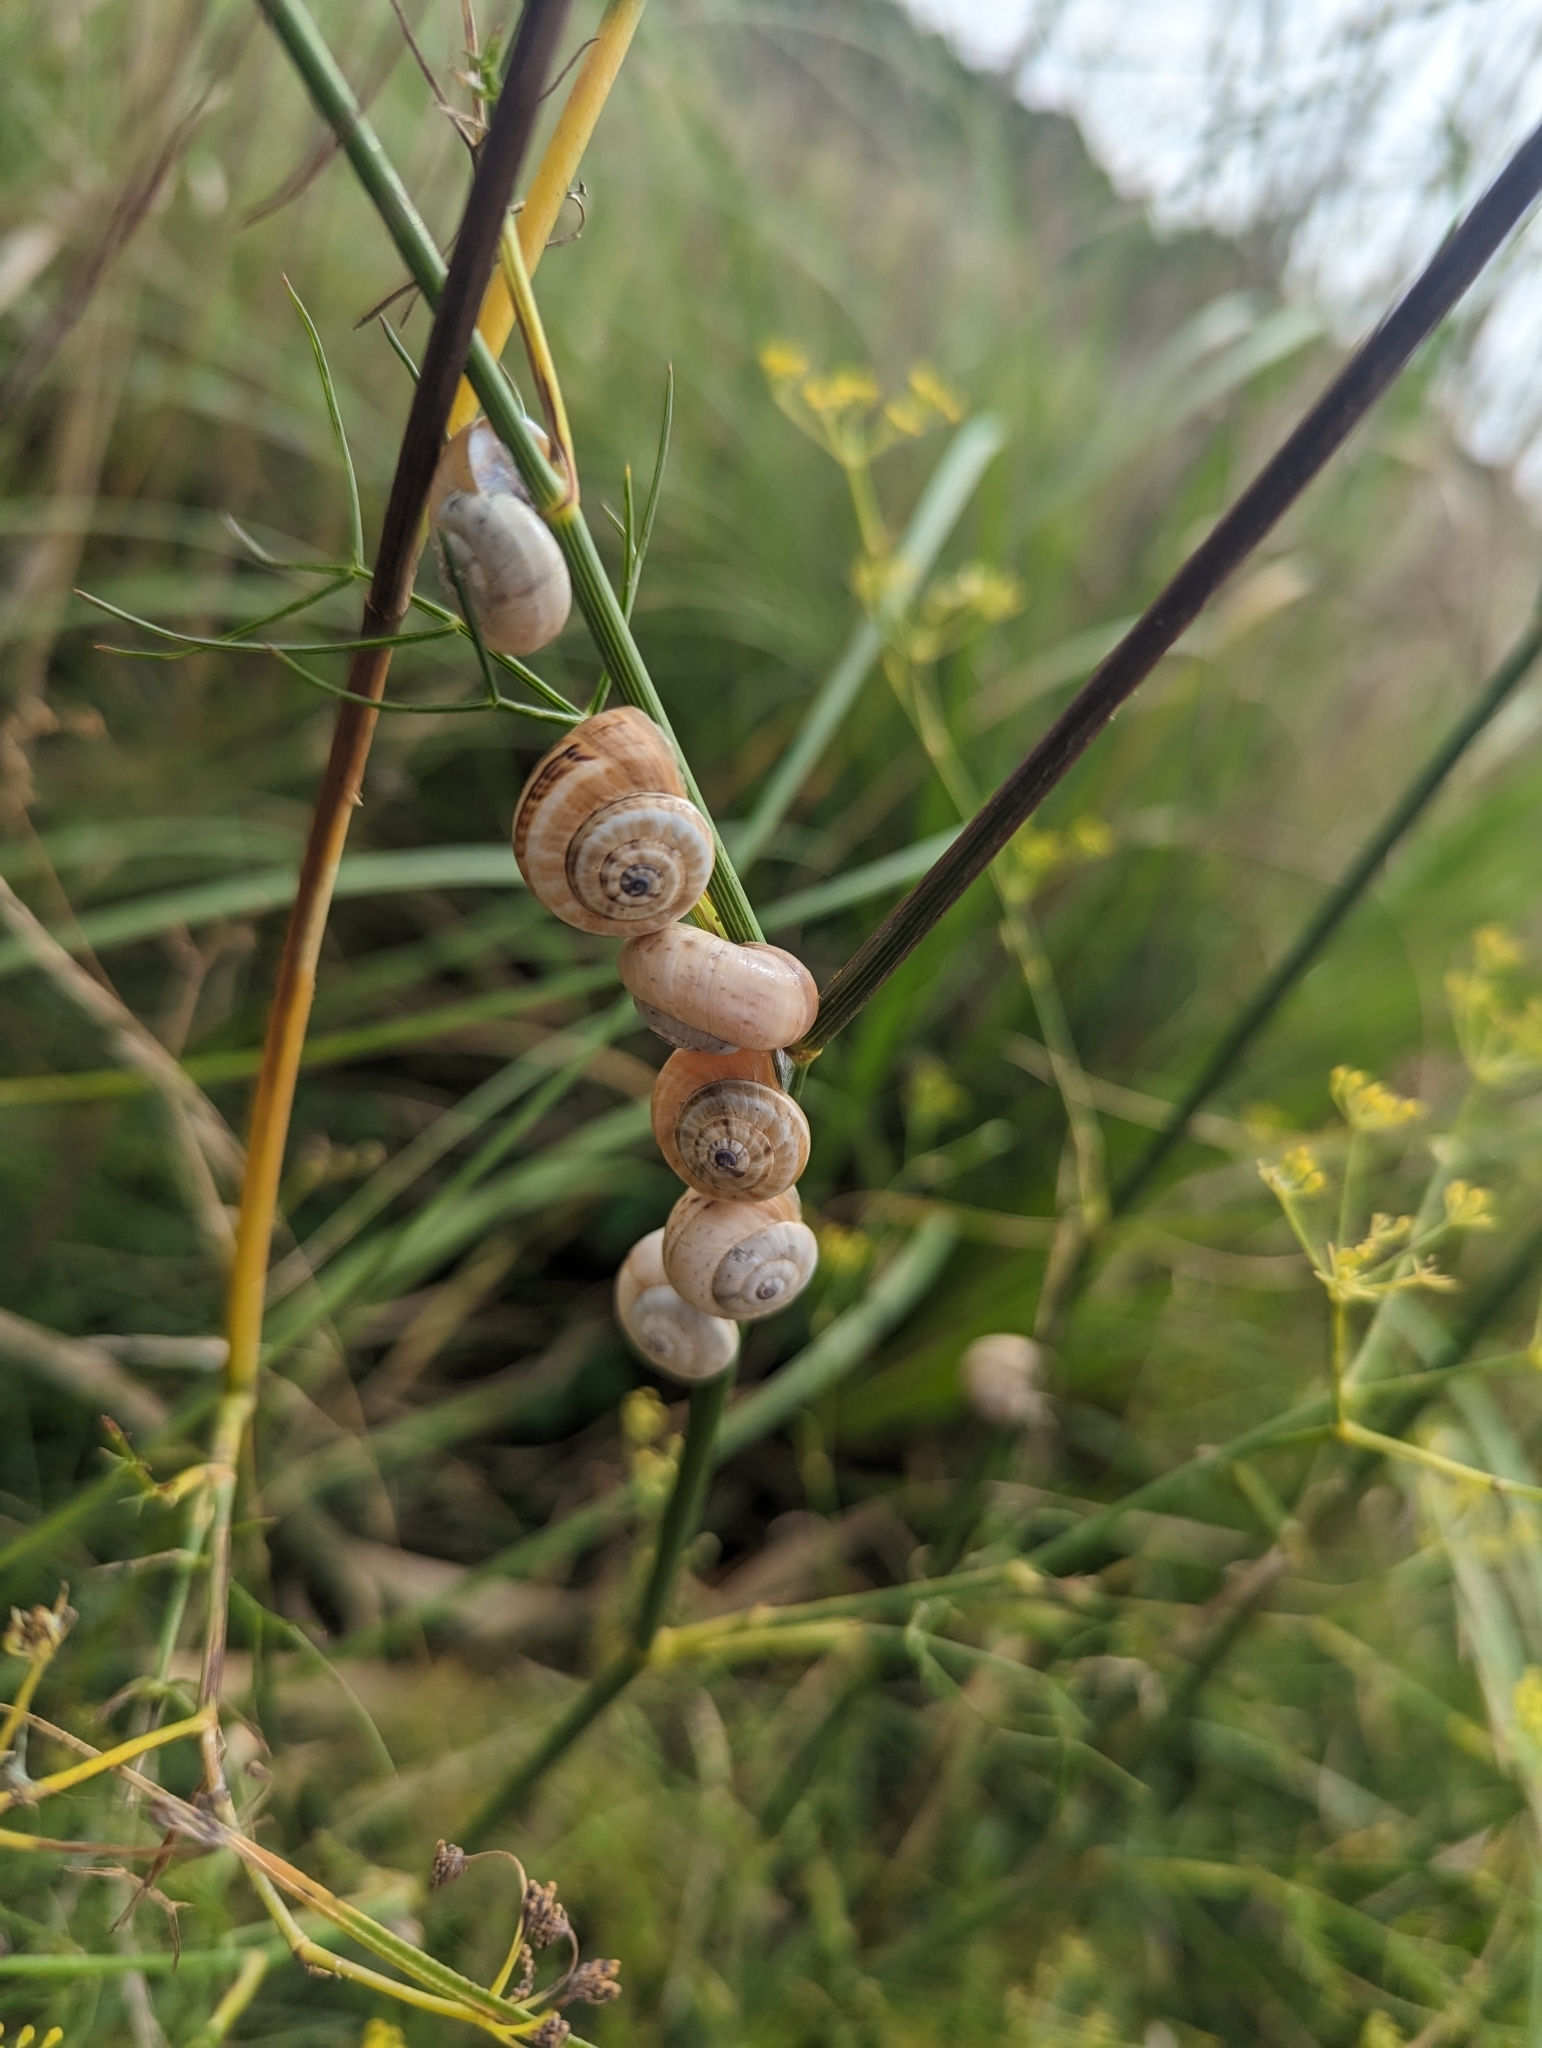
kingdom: Animalia
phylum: Mollusca
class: Gastropoda
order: Stylommatophora
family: Helicidae
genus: Theba
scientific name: Theba pisana
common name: White snail
